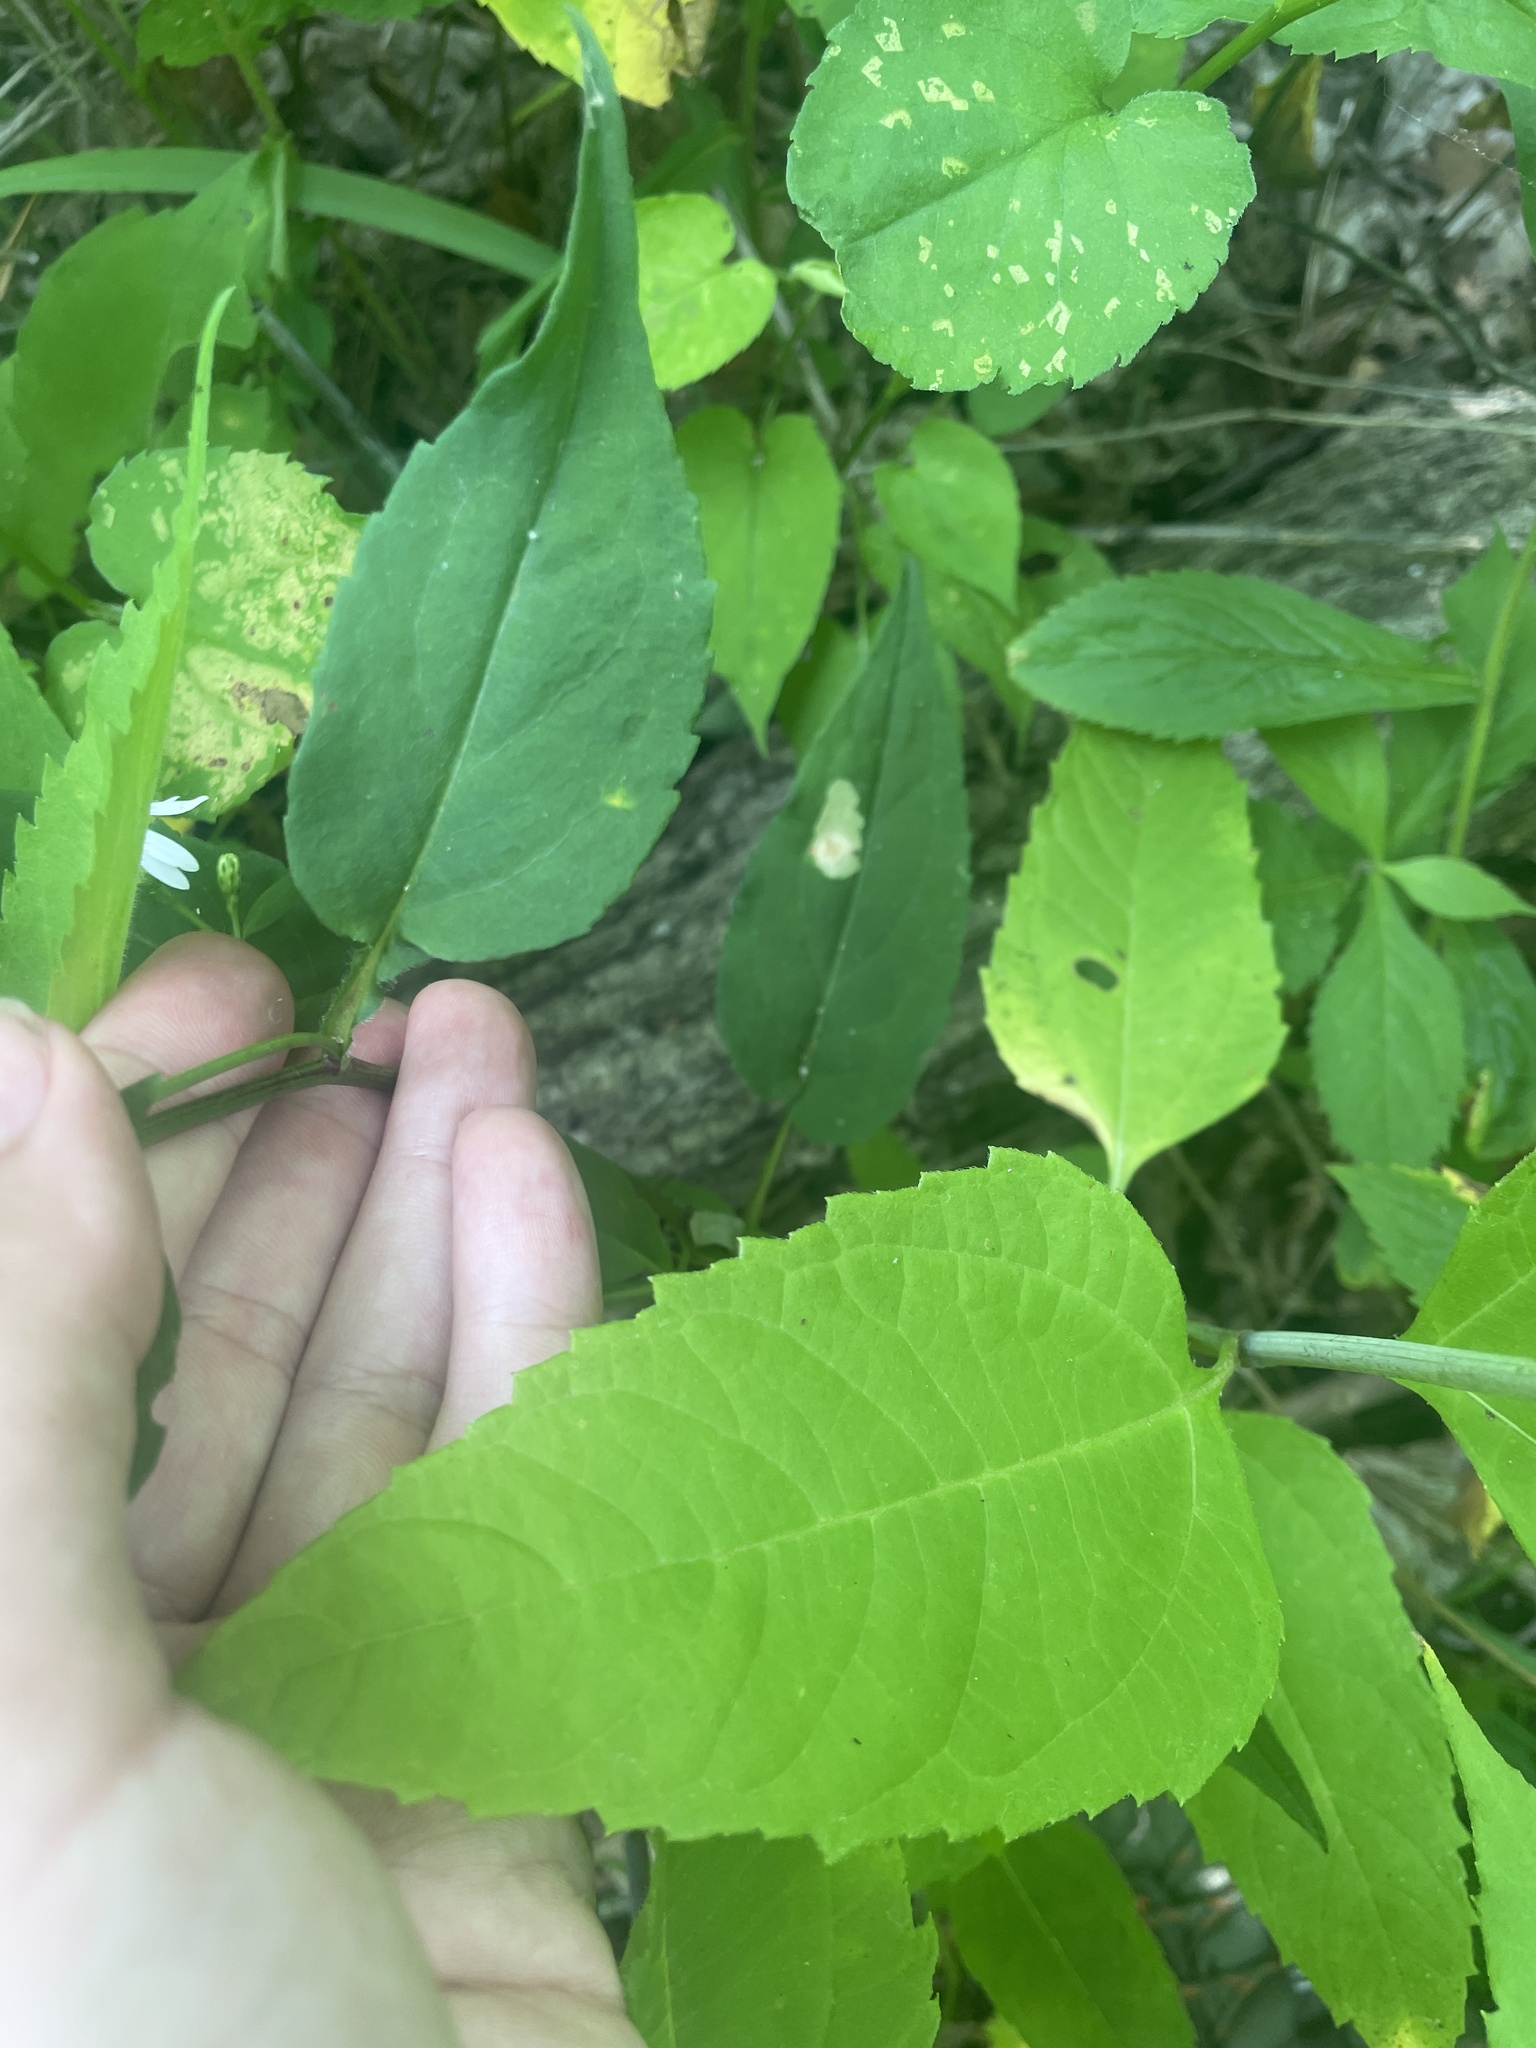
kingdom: Plantae
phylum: Tracheophyta
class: Magnoliopsida
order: Asterales
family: Asteraceae
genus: Eurybia
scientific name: Eurybia divaricata
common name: White wood aster
